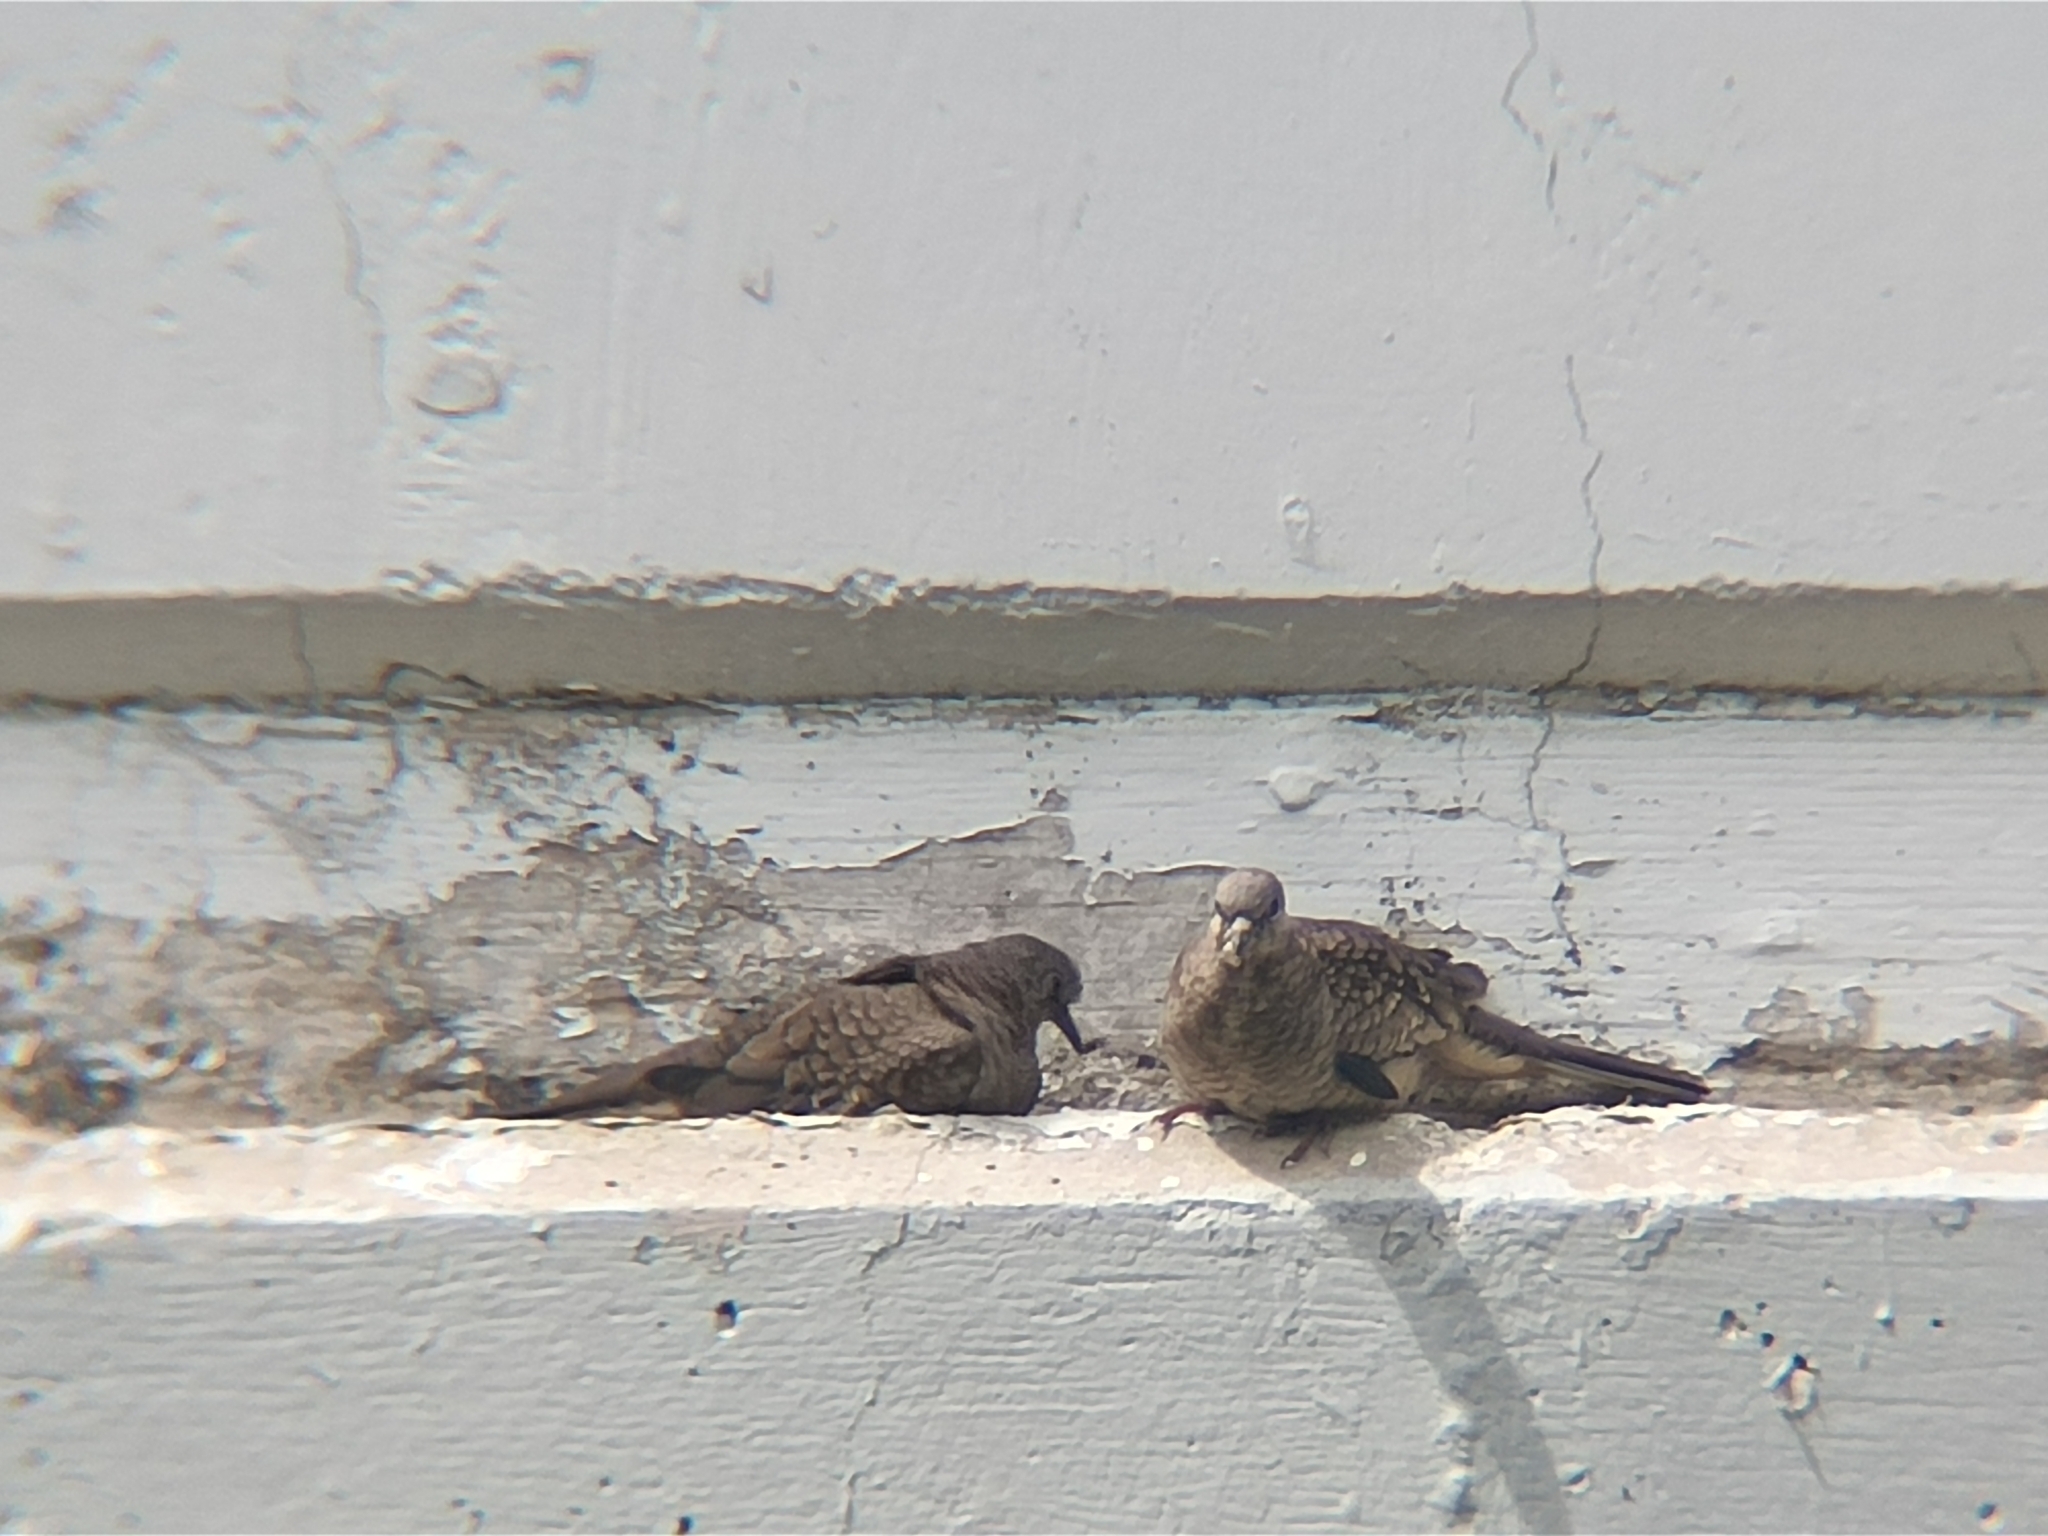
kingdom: Animalia
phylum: Chordata
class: Aves
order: Columbiformes
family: Columbidae
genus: Columbina
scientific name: Columbina inca
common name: Inca dove
